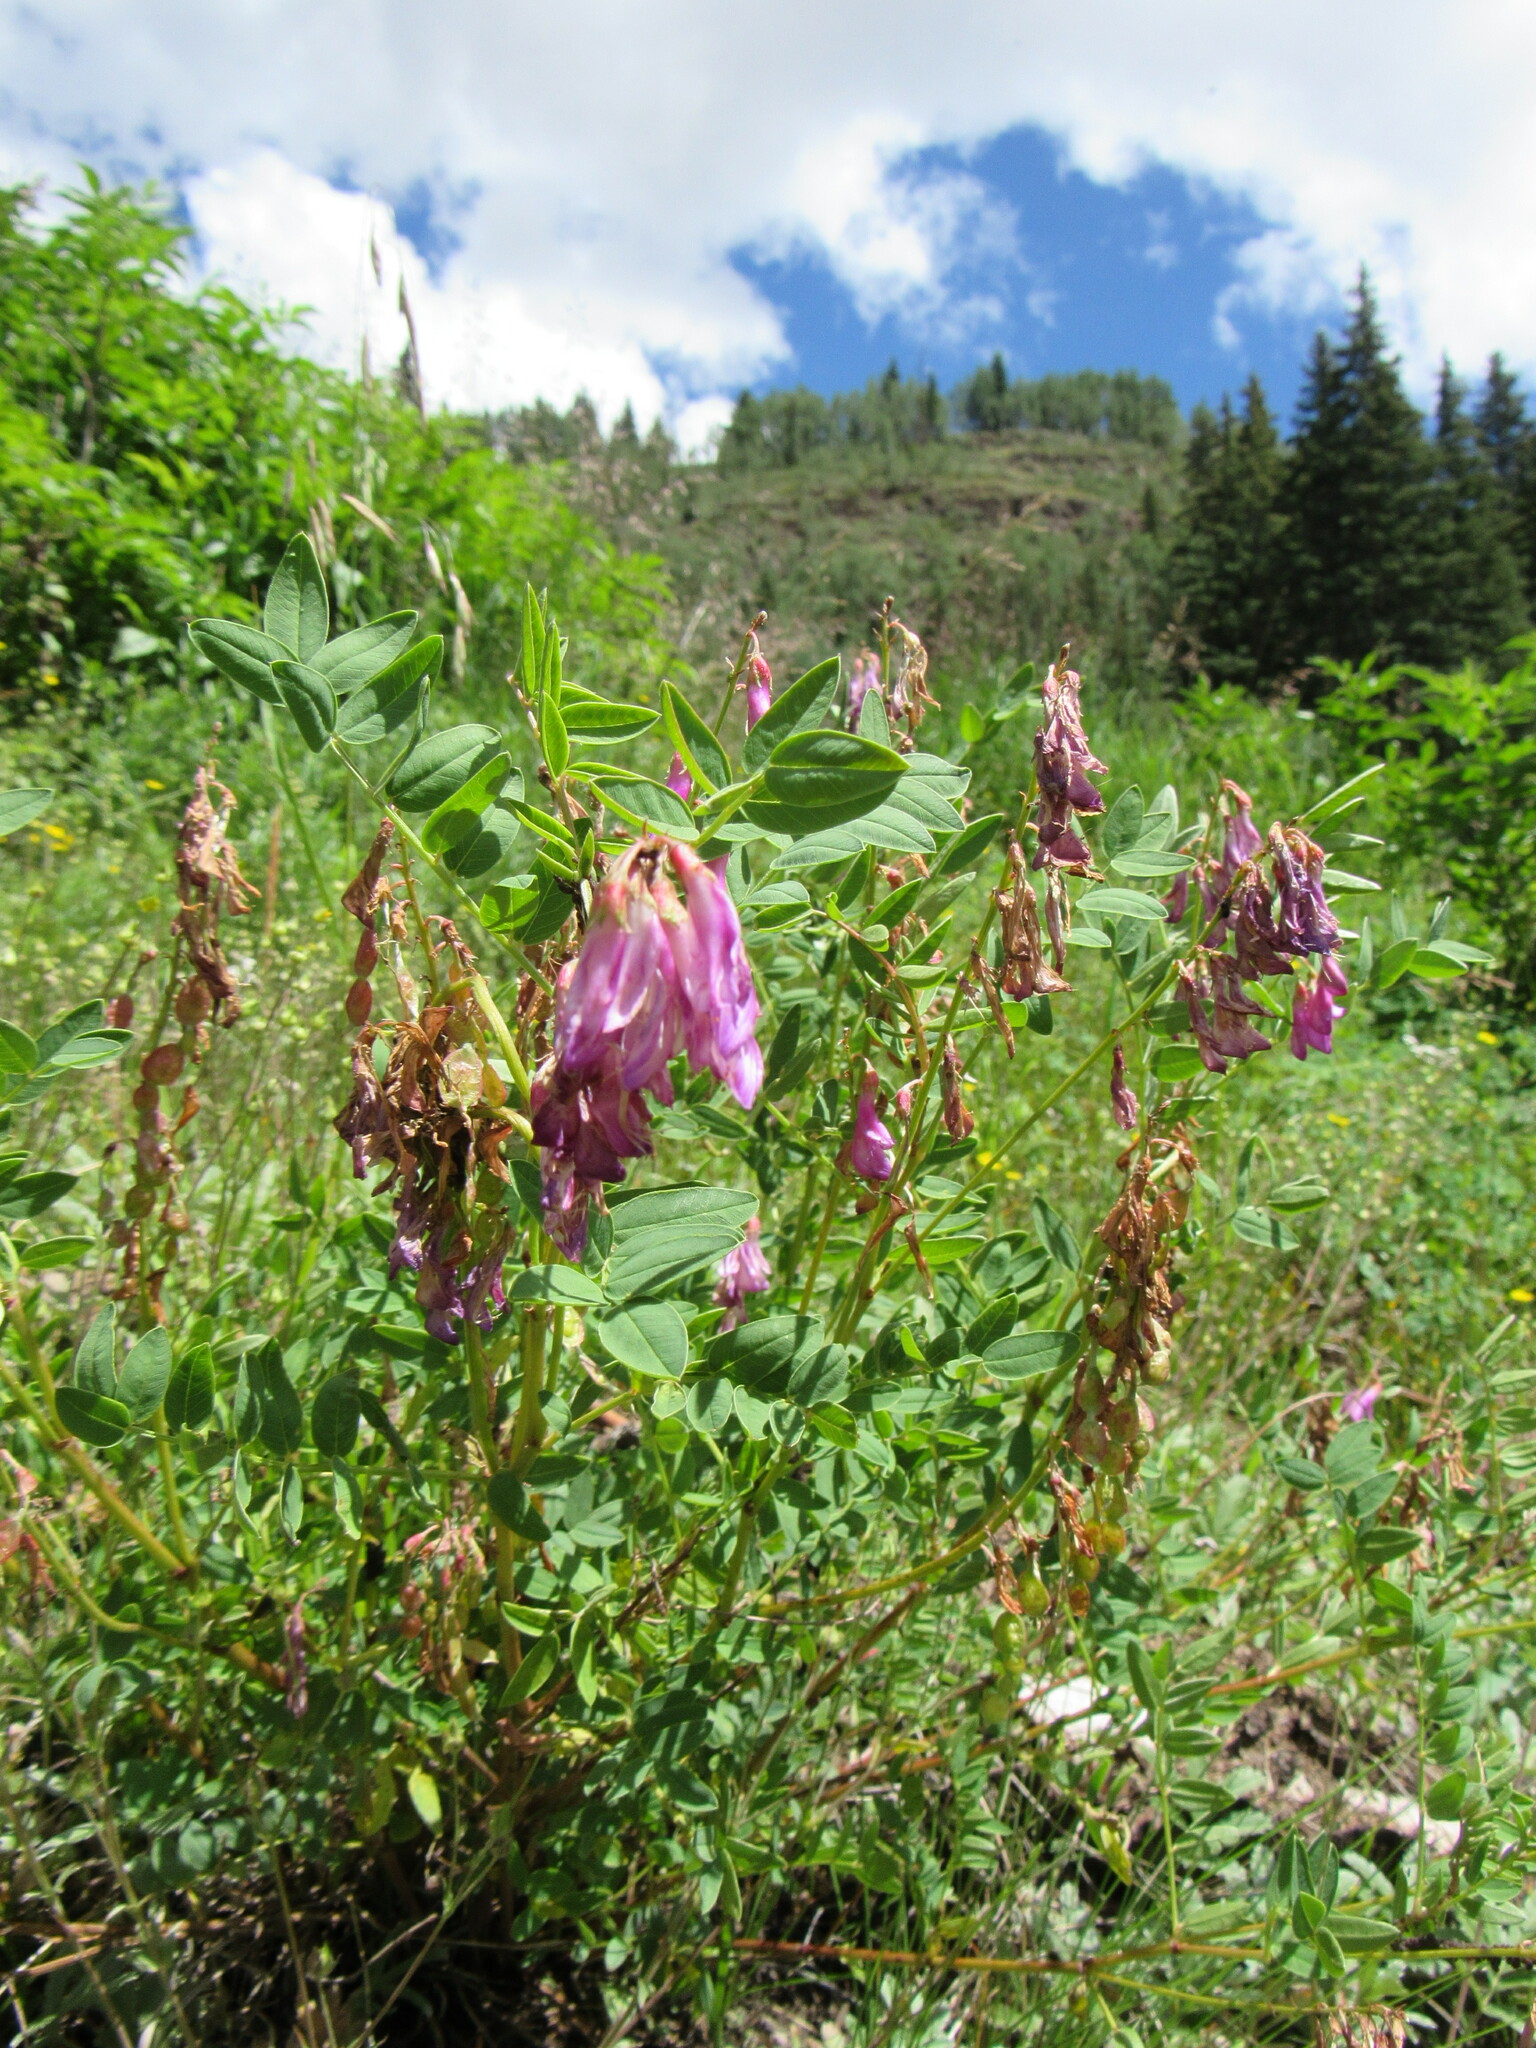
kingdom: Plantae
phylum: Tracheophyta
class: Magnoliopsida
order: Fabales
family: Fabaceae
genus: Hedysarum
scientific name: Hedysarum occidentale
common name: Western hedysarum
